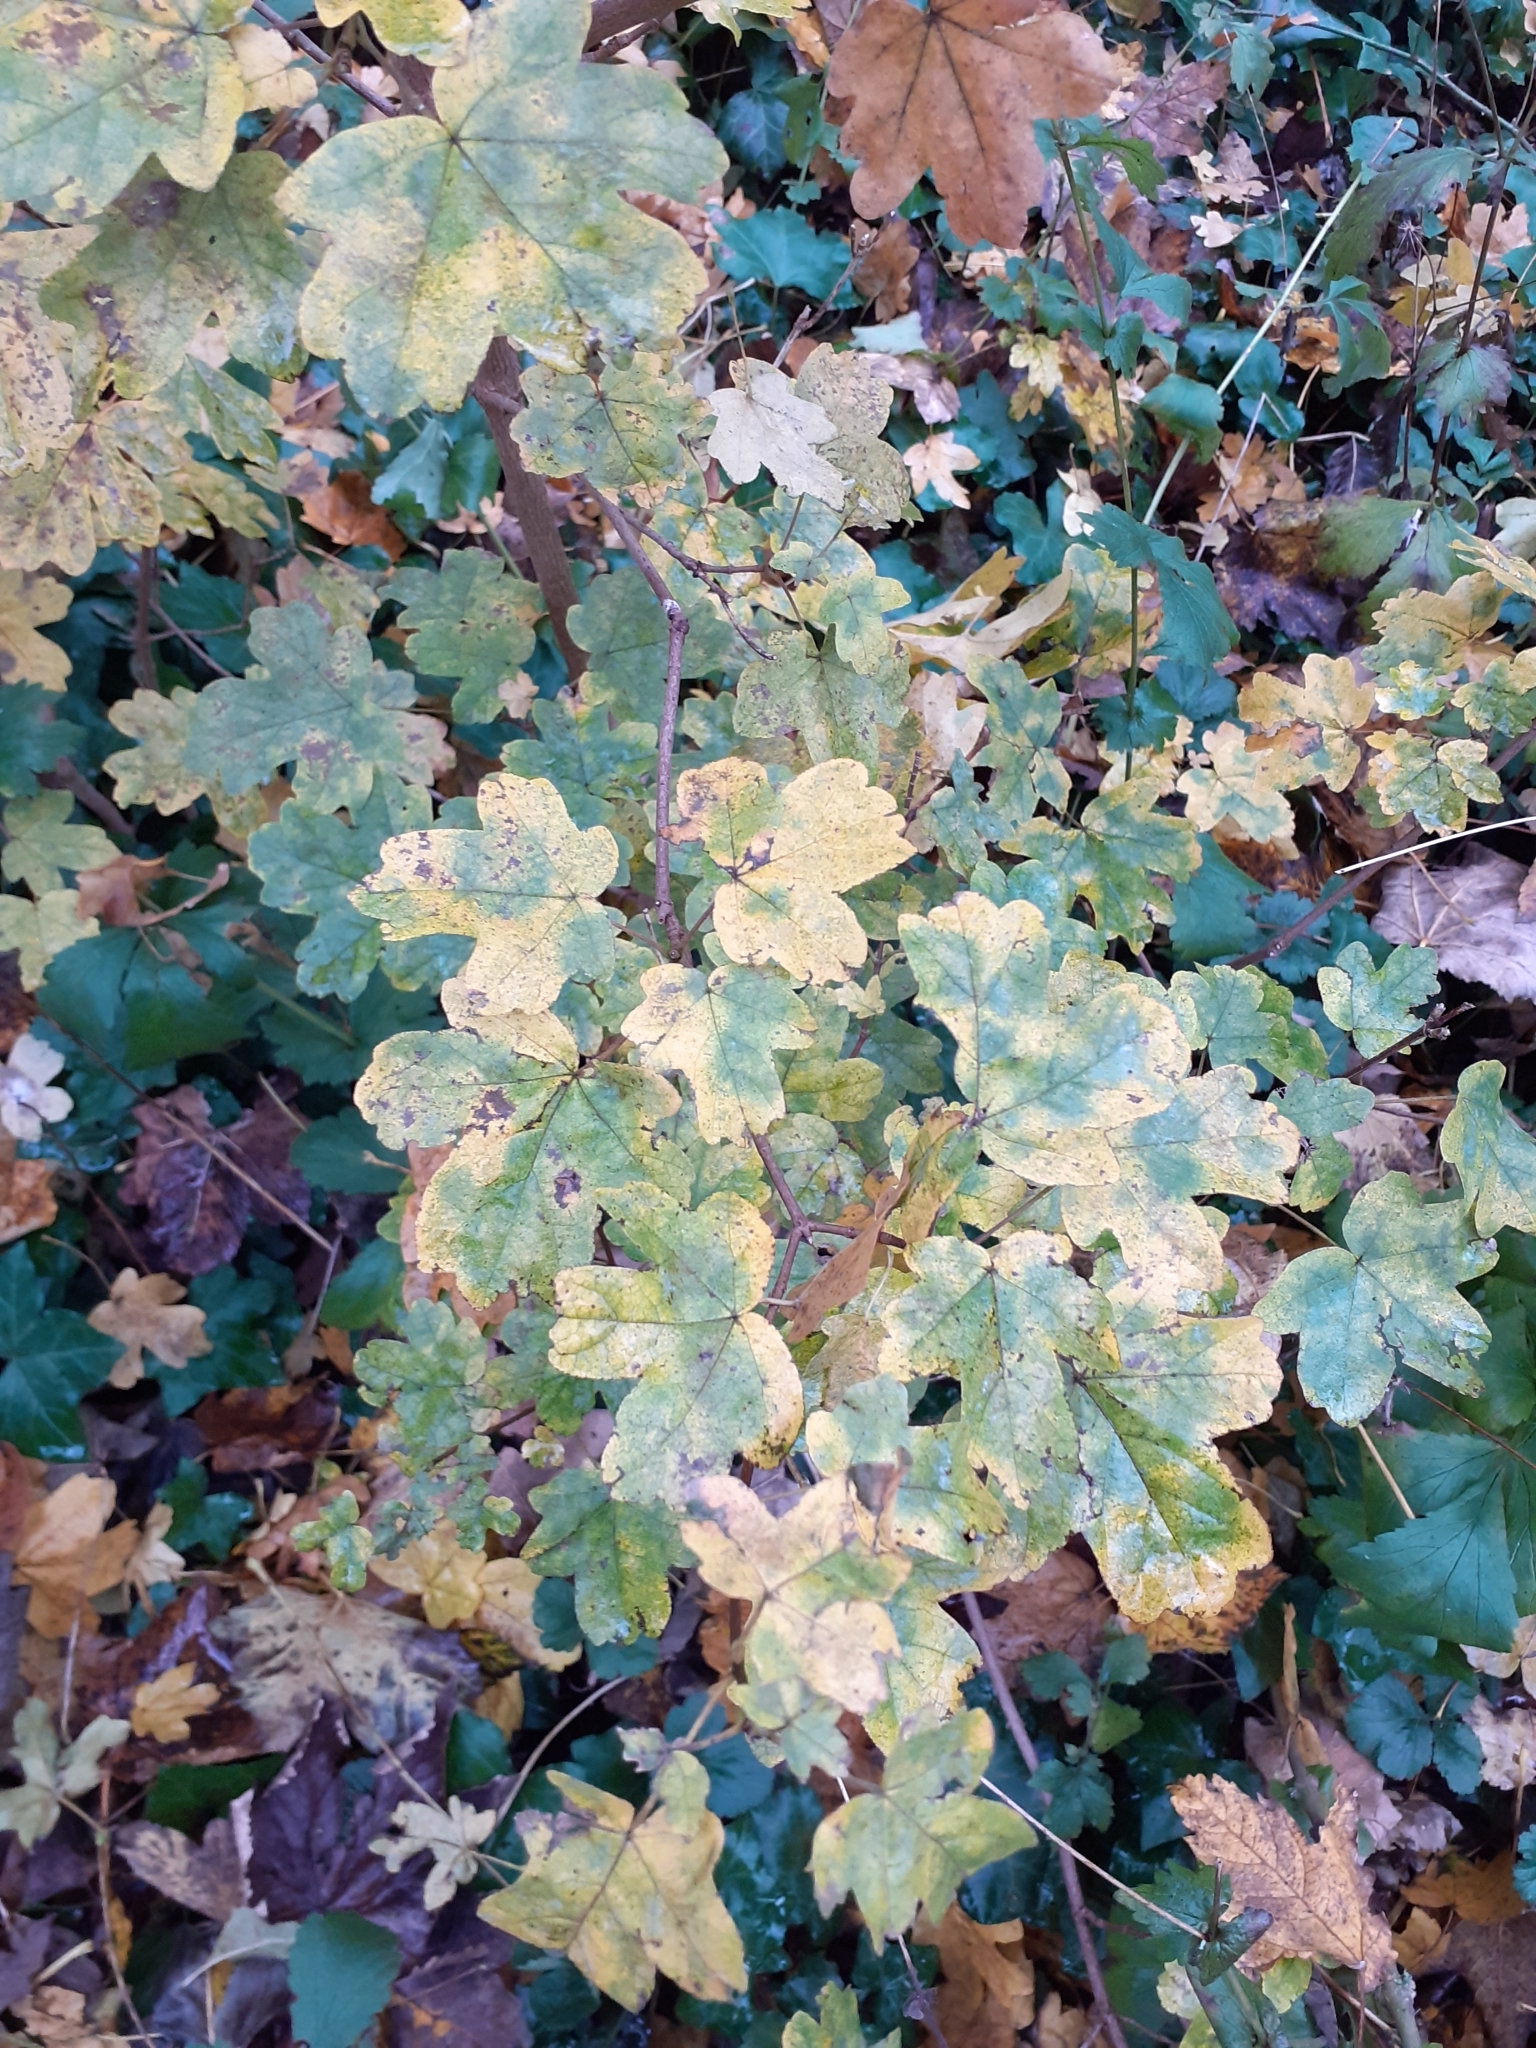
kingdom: Plantae
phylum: Tracheophyta
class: Magnoliopsida
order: Sapindales
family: Sapindaceae
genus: Acer
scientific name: Acer campestre
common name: Field maple
